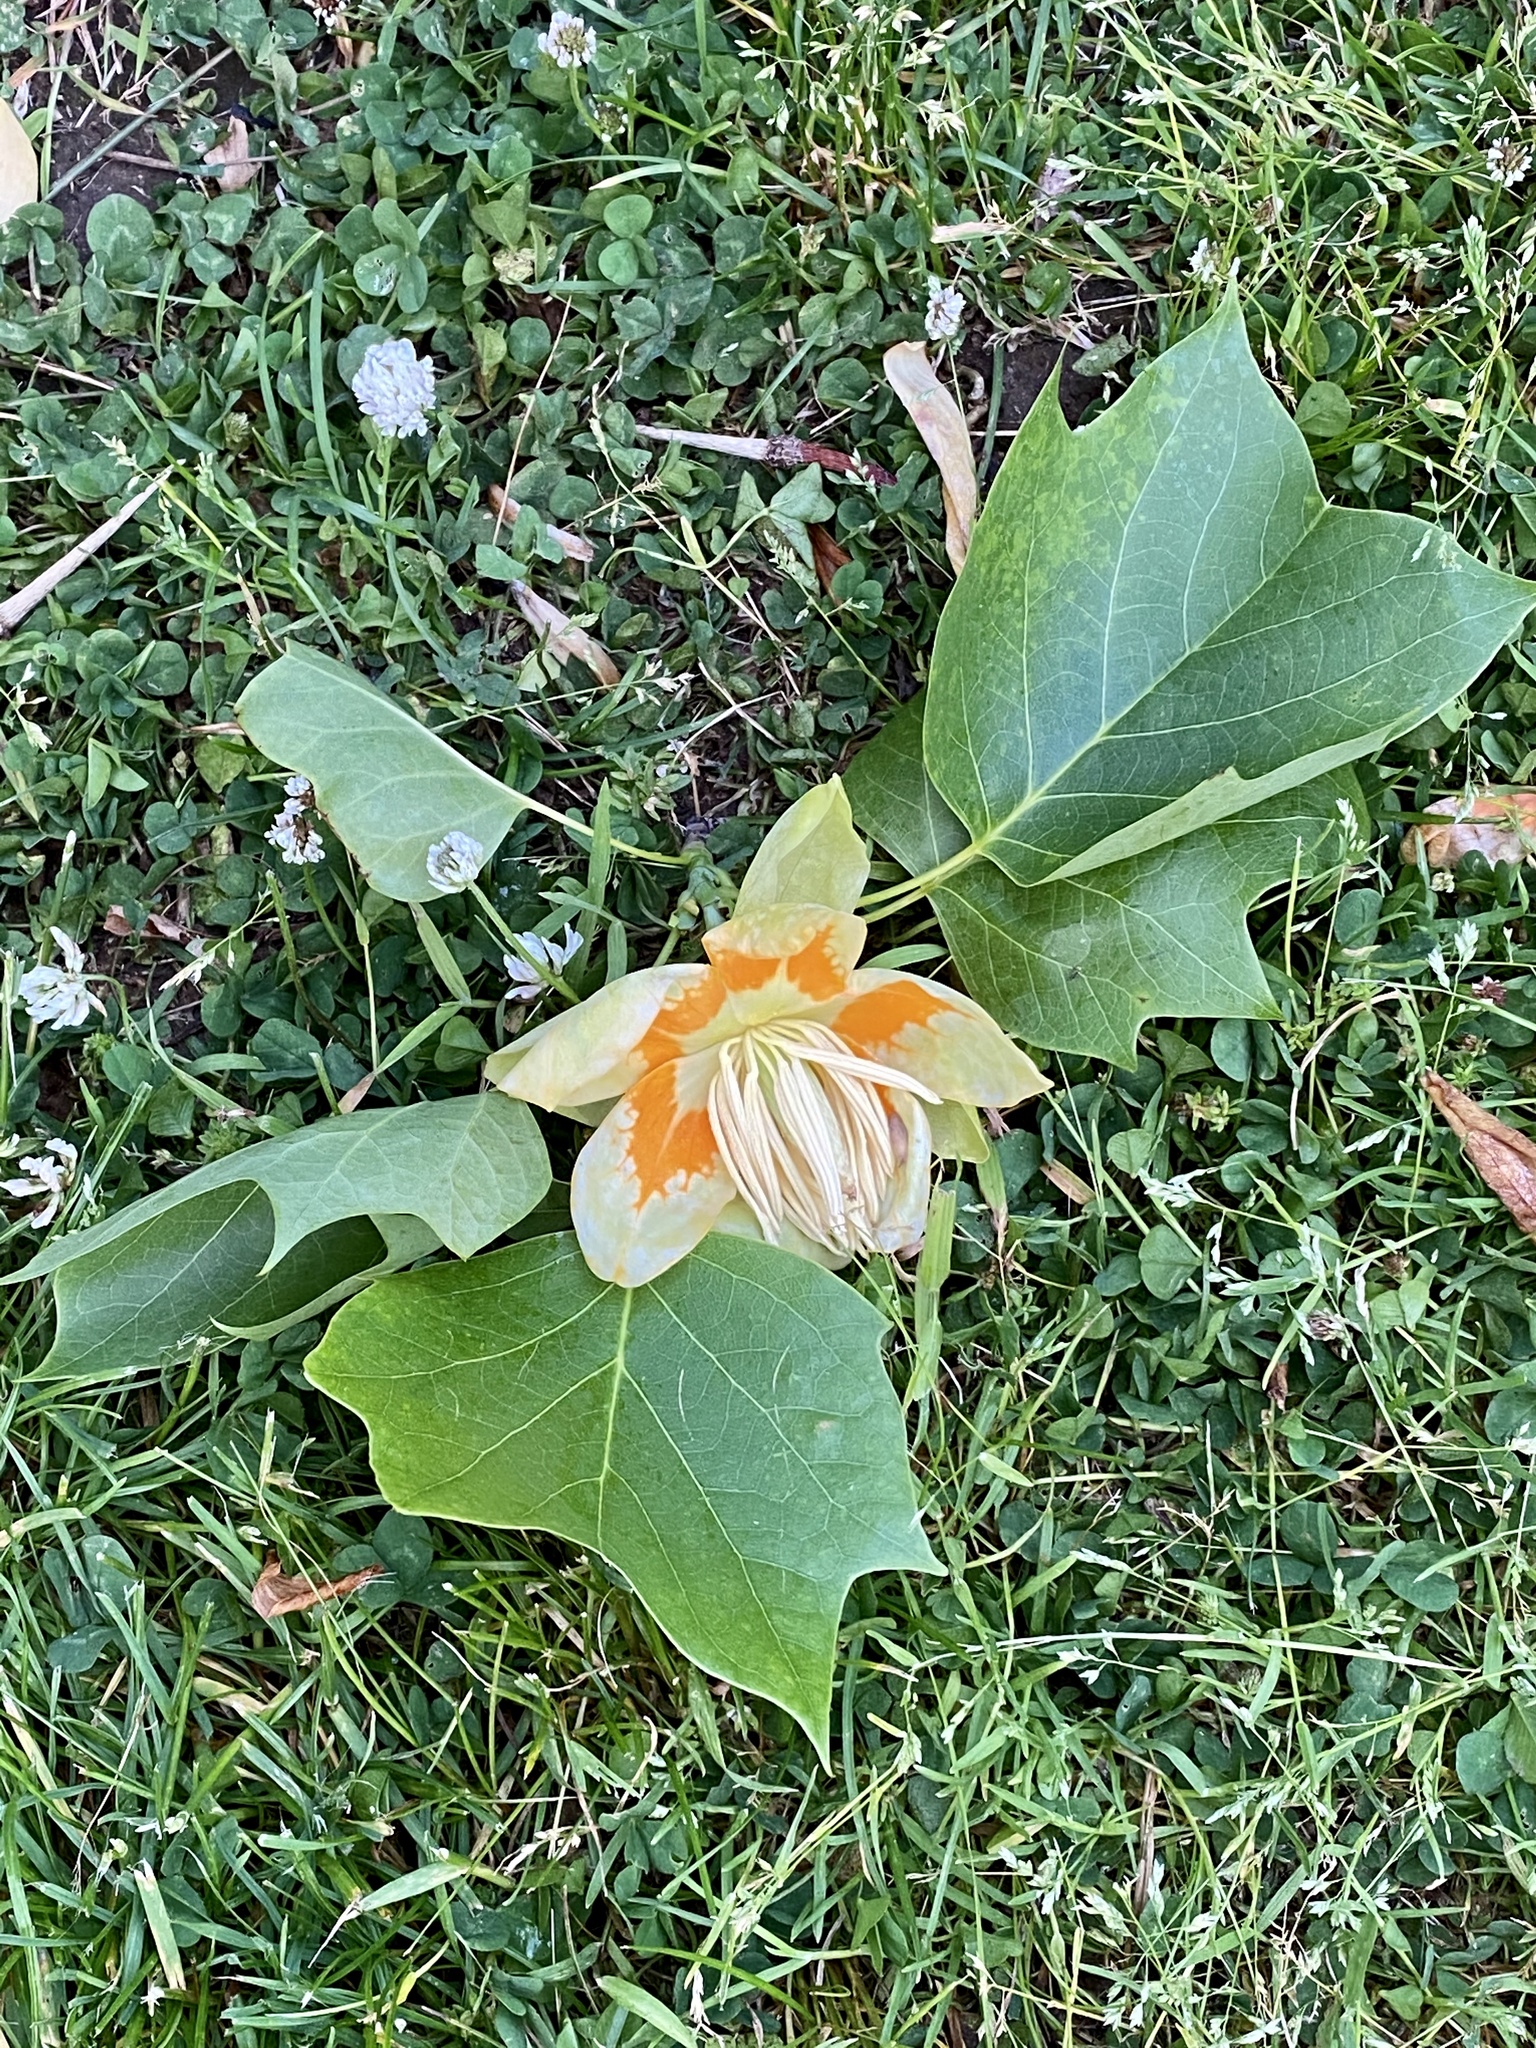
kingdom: Plantae
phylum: Tracheophyta
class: Magnoliopsida
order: Magnoliales
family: Magnoliaceae
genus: Liriodendron
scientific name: Liriodendron tulipifera
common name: Tulip tree
